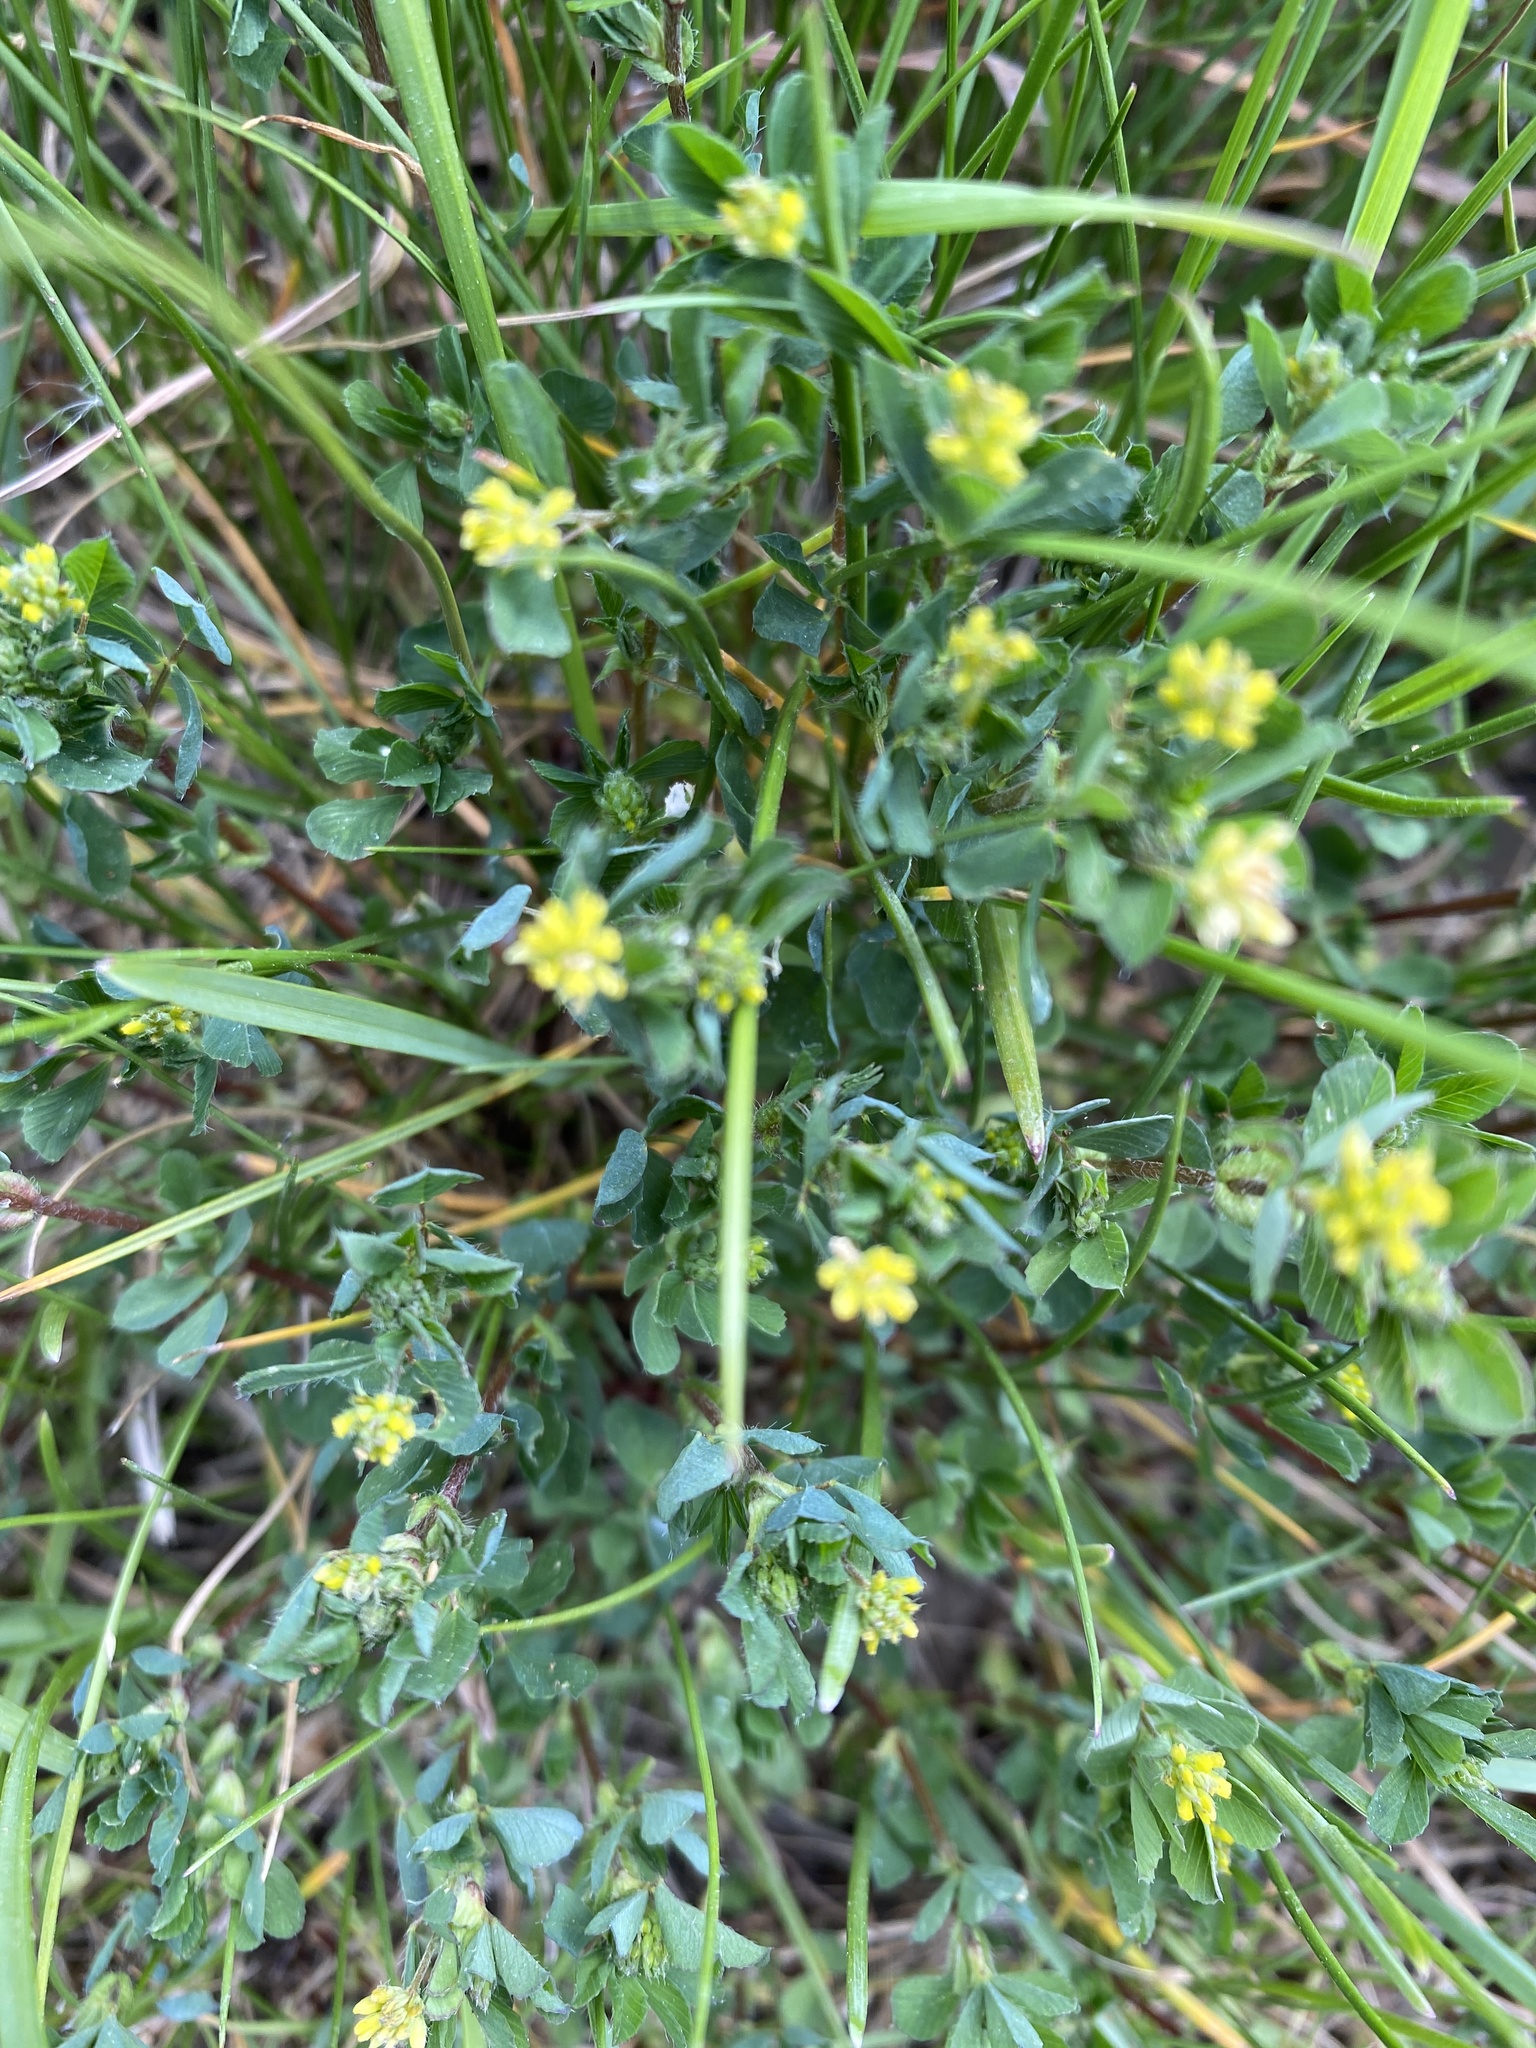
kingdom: Plantae
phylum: Tracheophyta
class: Magnoliopsida
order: Fabales
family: Fabaceae
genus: Trifolium
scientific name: Trifolium dubium
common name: Suckling clover
